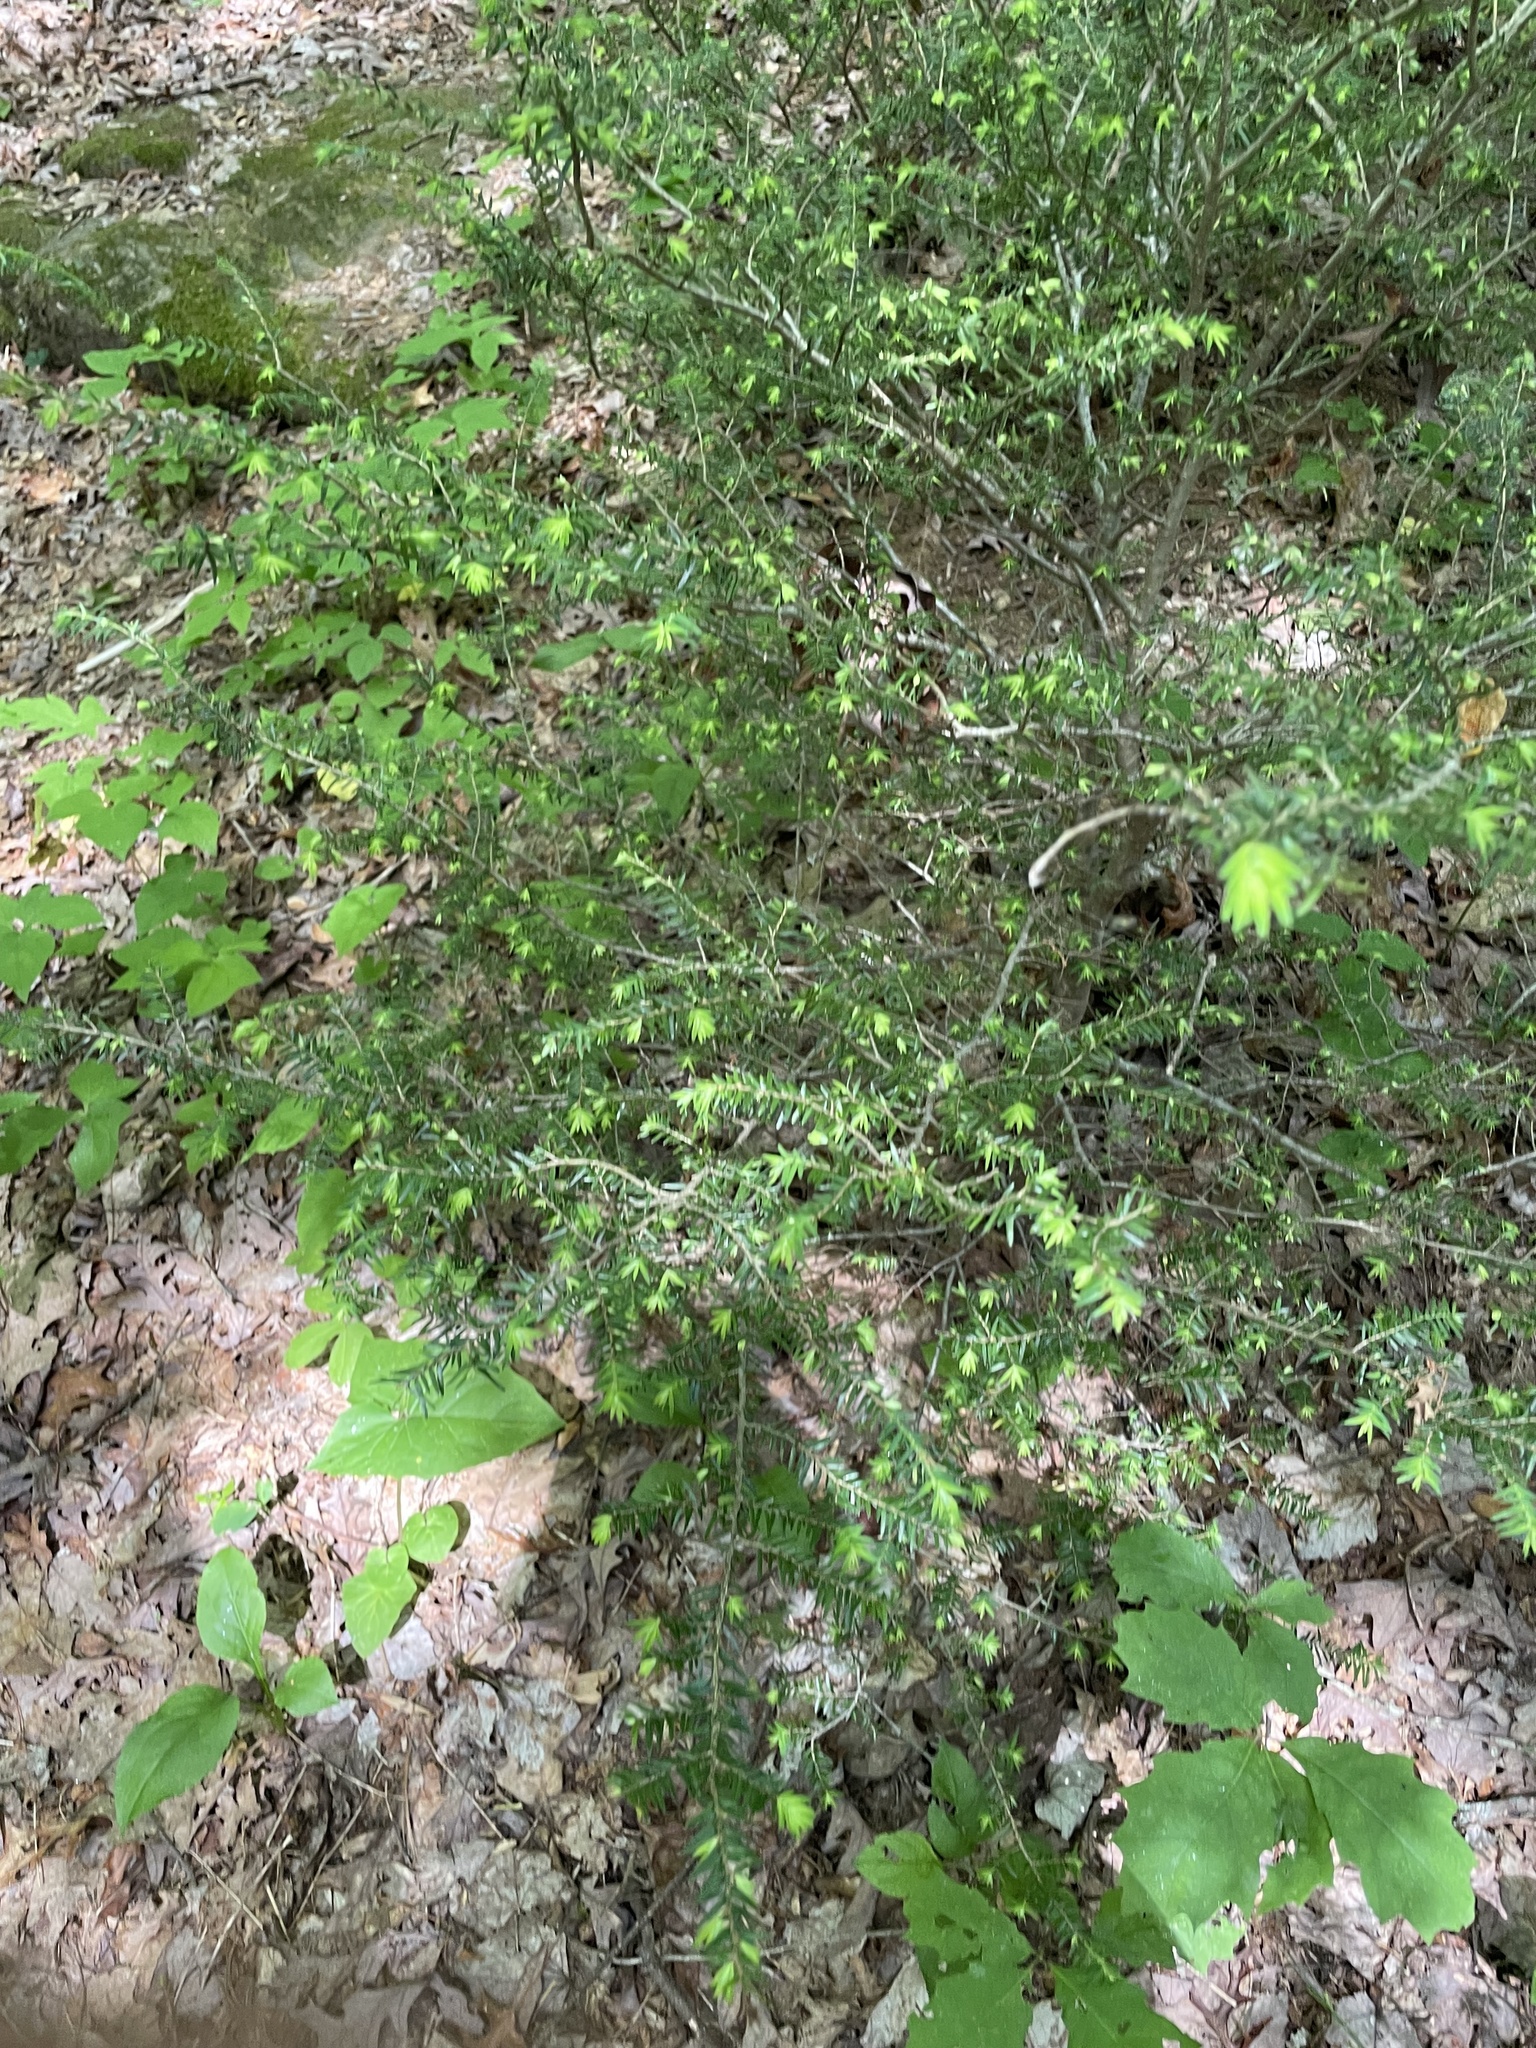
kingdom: Plantae
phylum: Tracheophyta
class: Pinopsida
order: Pinales
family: Pinaceae
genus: Tsuga
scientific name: Tsuga canadensis
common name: Eastern hemlock
